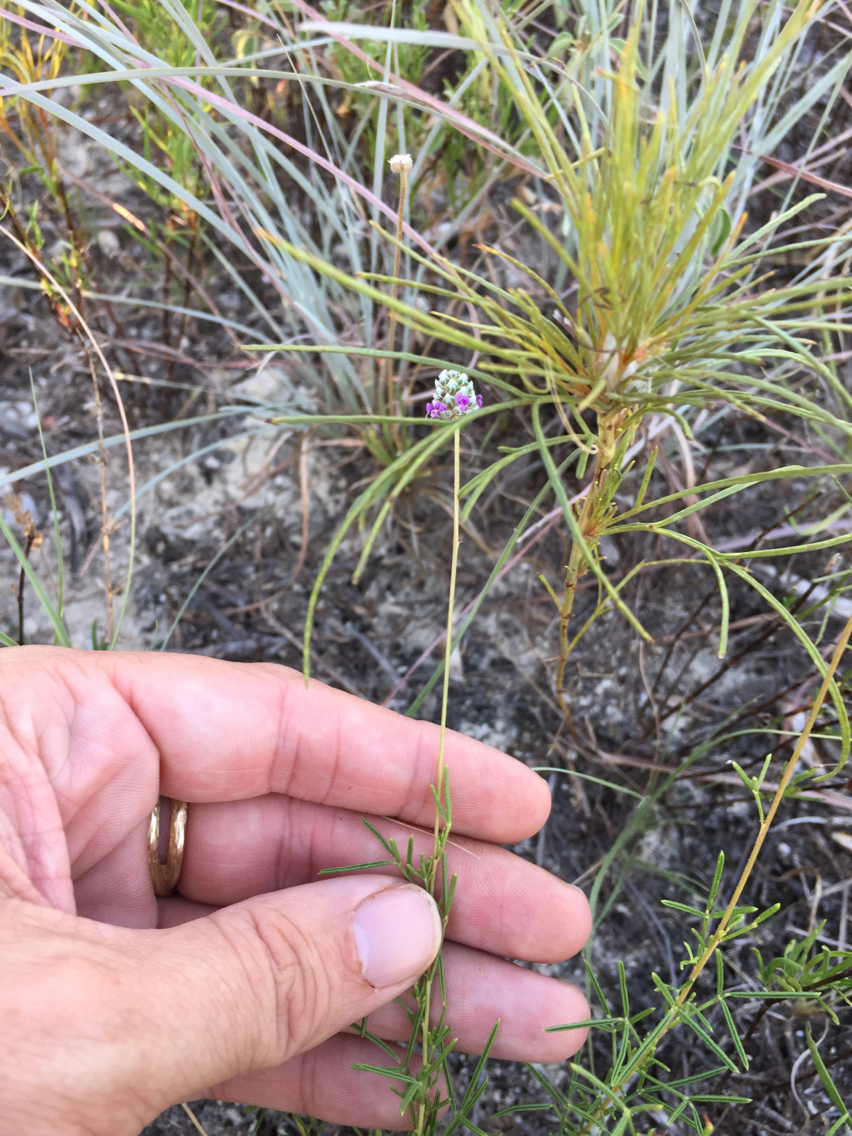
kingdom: Plantae
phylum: Tracheophyta
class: Magnoliopsida
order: Fabales
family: Fabaceae
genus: Dalea
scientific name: Dalea tenuis
